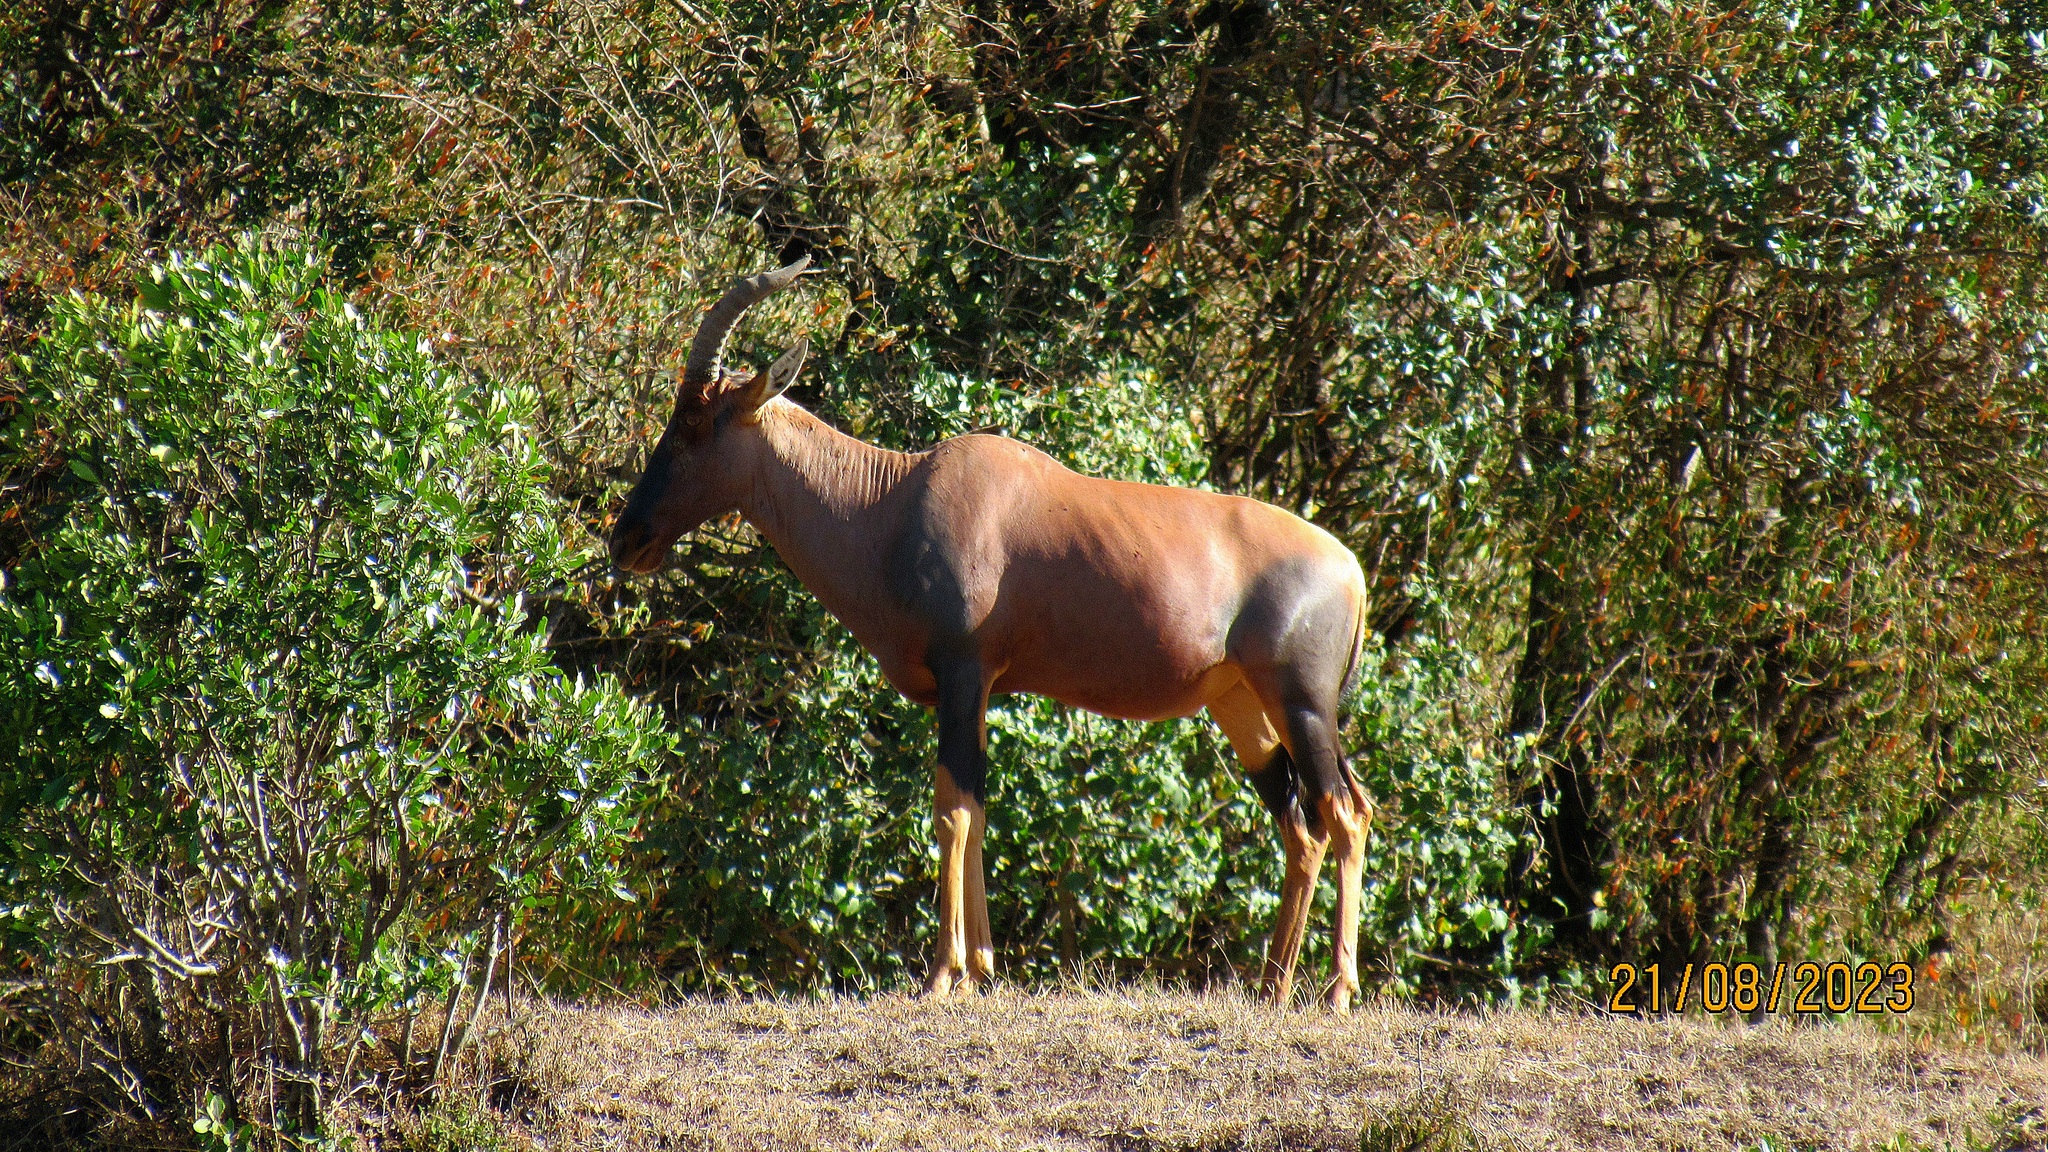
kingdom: Animalia
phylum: Chordata
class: Mammalia
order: Artiodactyla
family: Bovidae
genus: Damaliscus
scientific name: Damaliscus korrigum
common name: Topi
